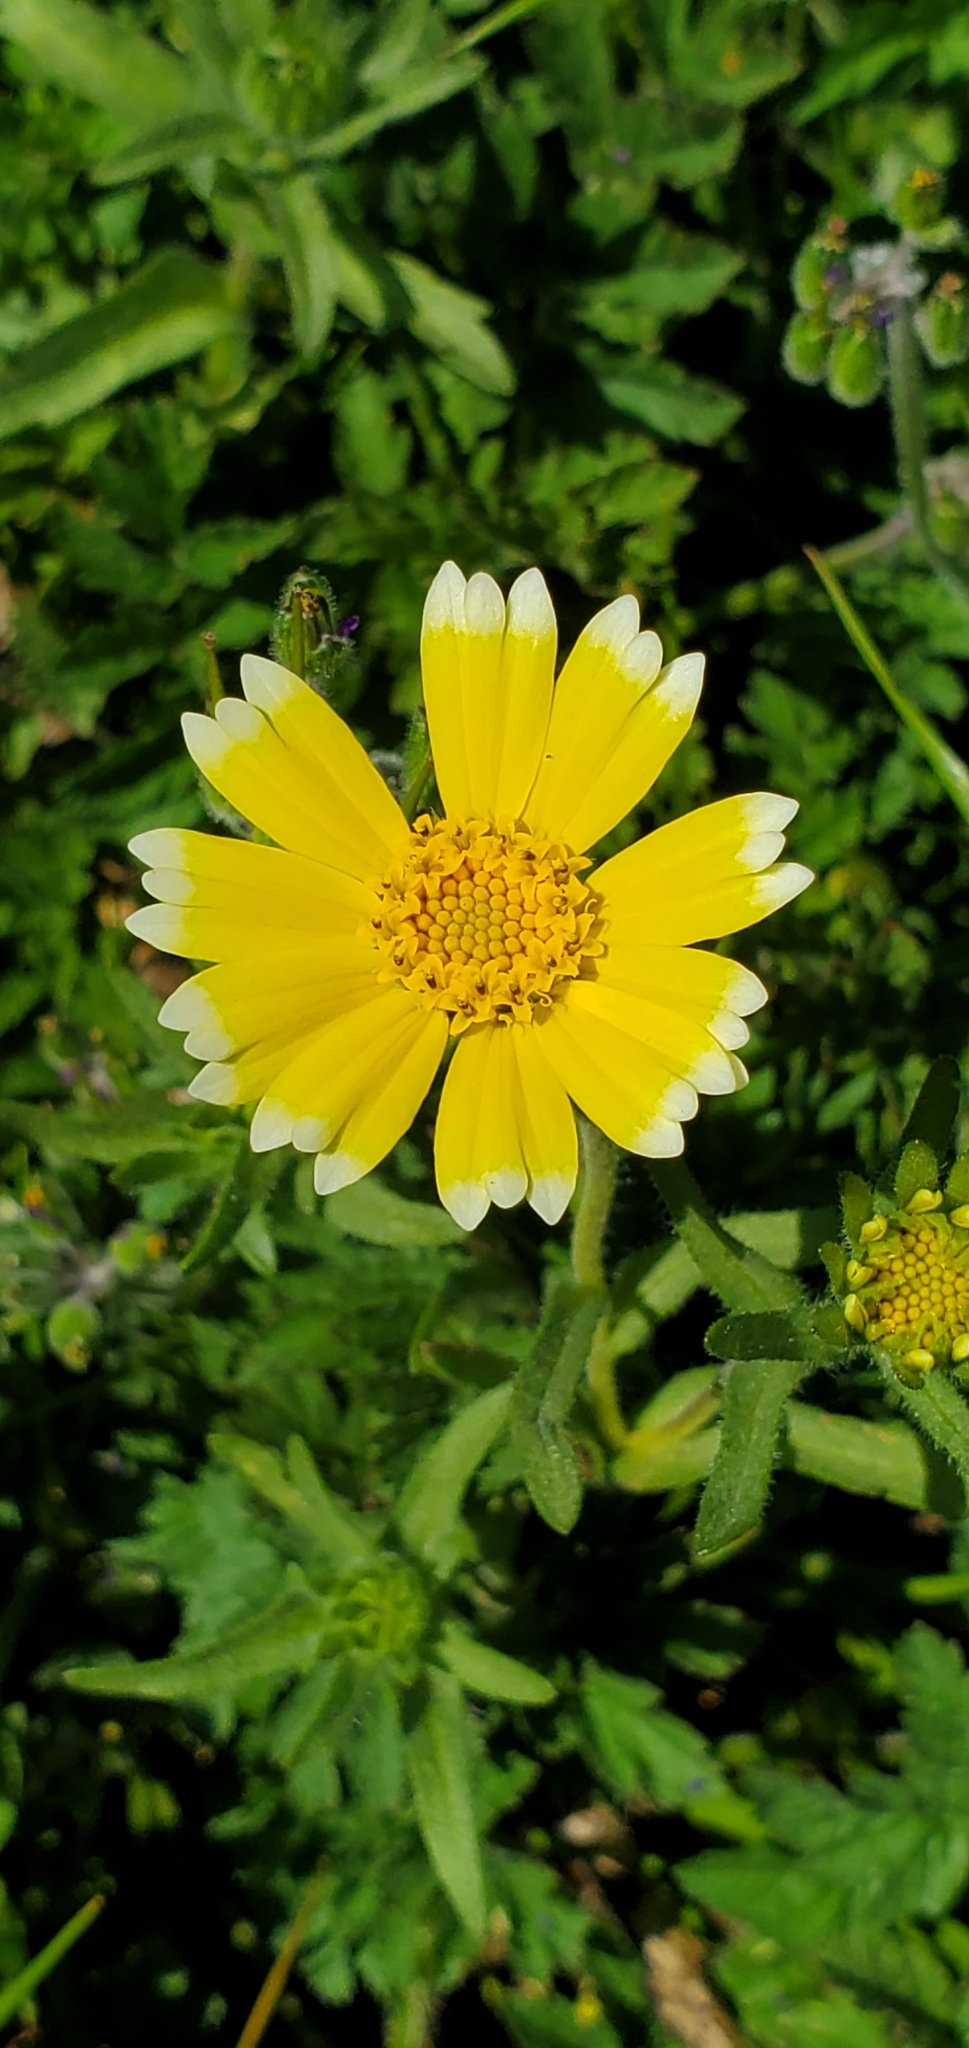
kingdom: Plantae
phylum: Tracheophyta
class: Magnoliopsida
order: Asterales
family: Asteraceae
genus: Layia
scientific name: Layia platyglossa
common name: Tidy-tips
